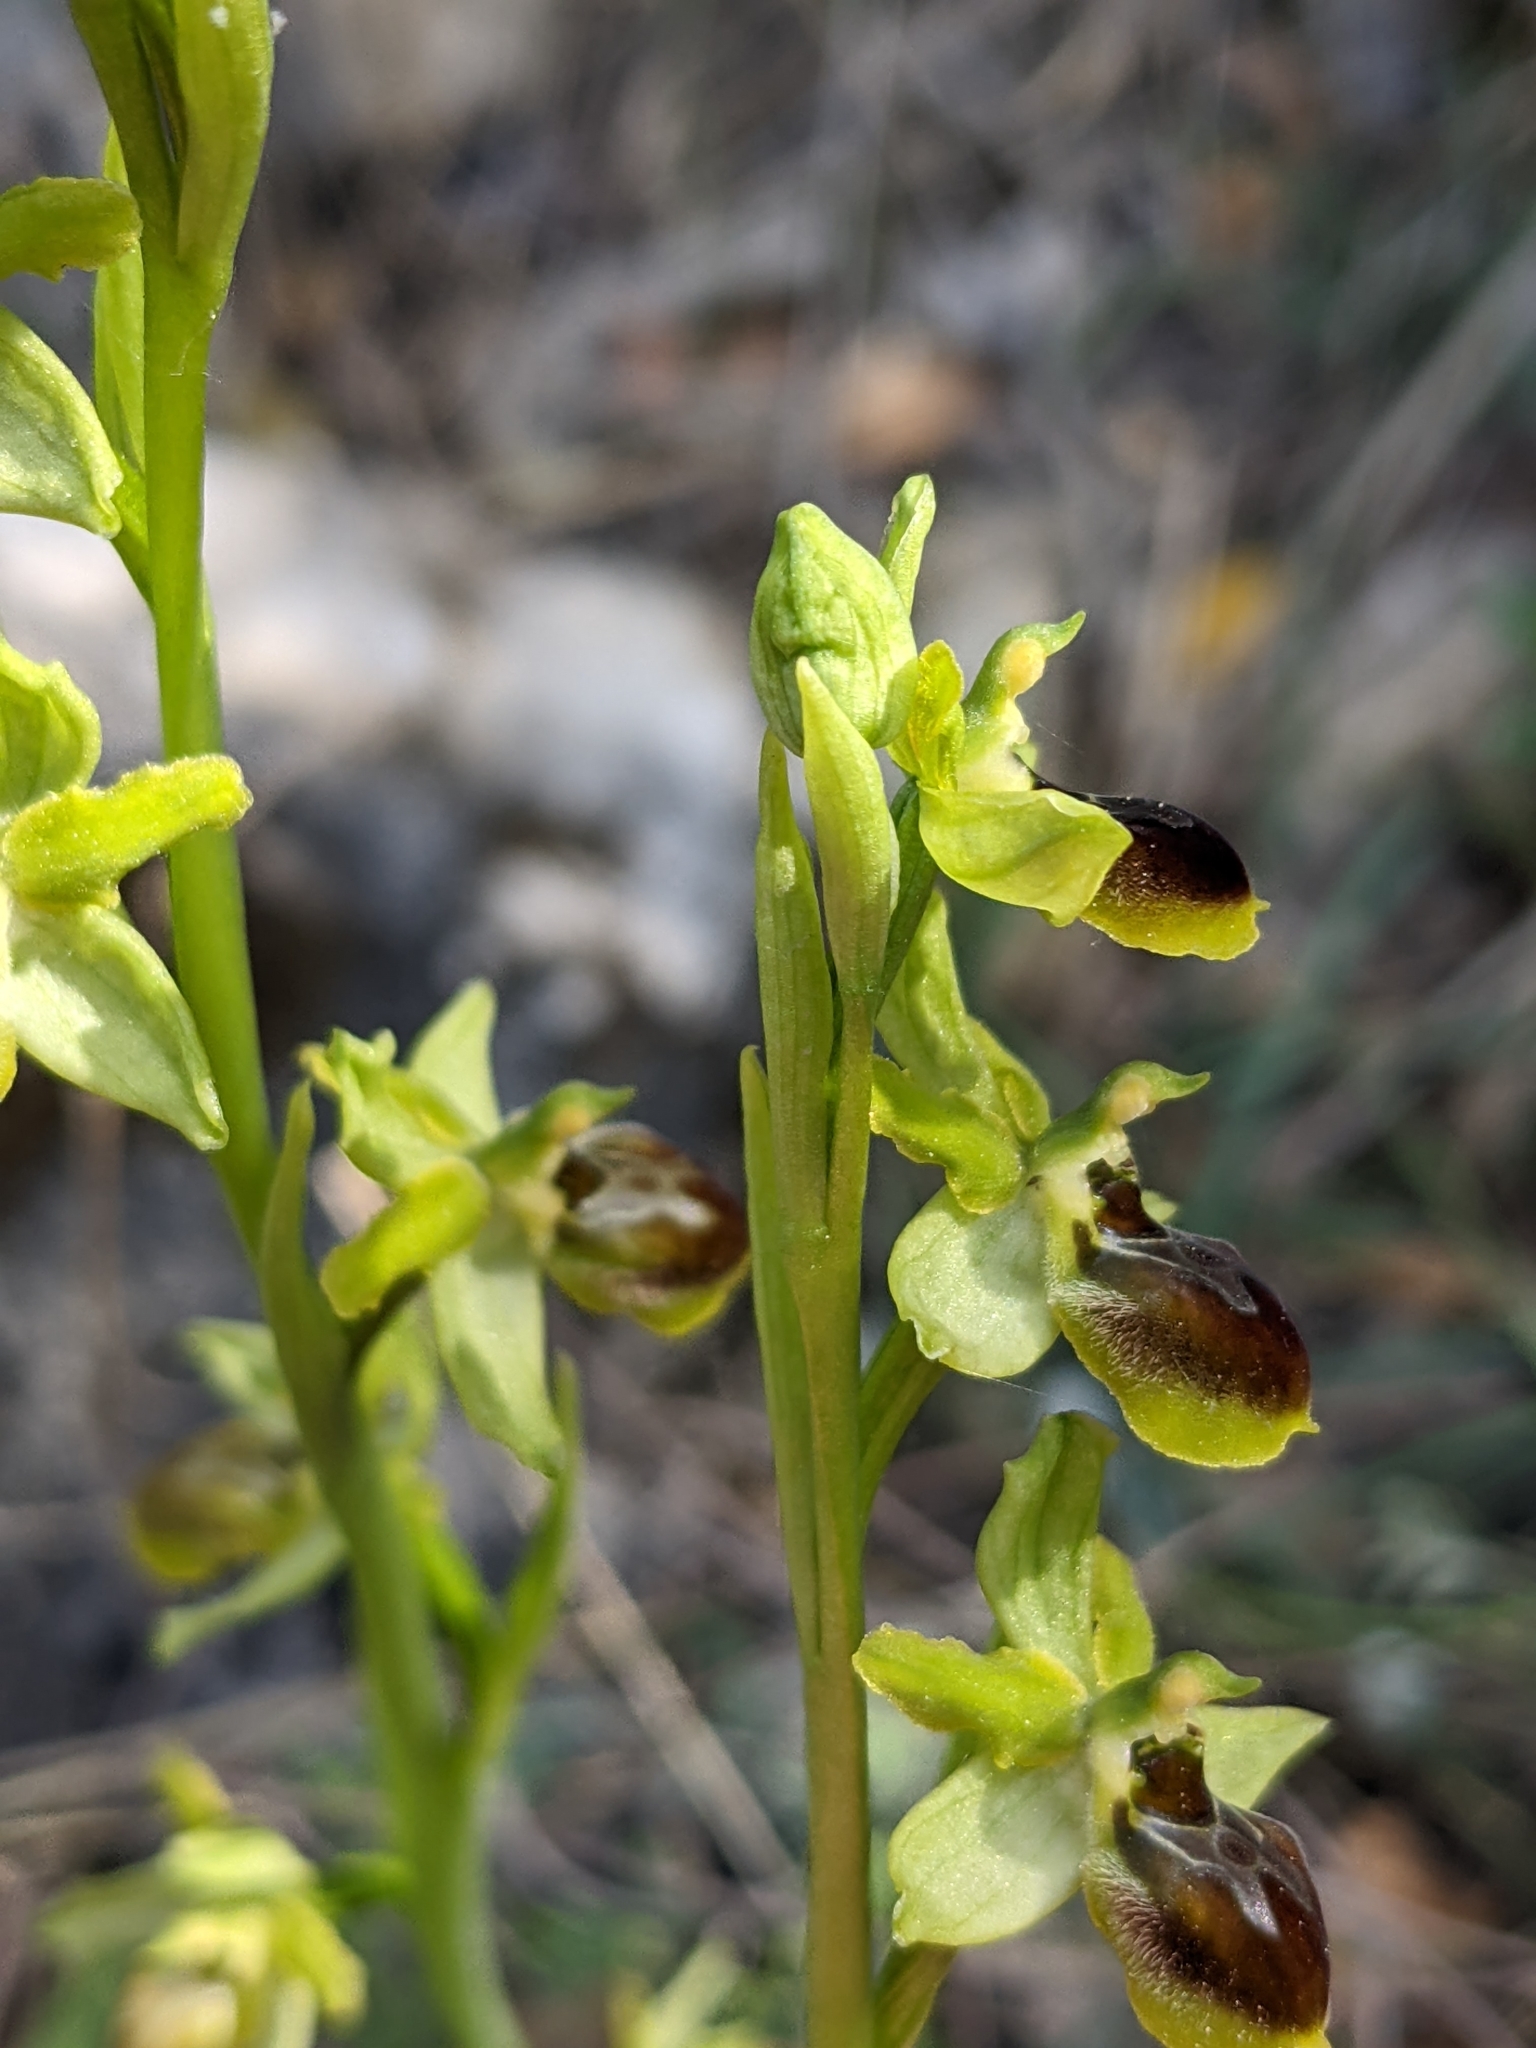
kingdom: Plantae
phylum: Tracheophyta
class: Liliopsida
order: Asparagales
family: Orchidaceae
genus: Ophrys
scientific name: Ophrys sphegodes
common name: Early spider-orchid
